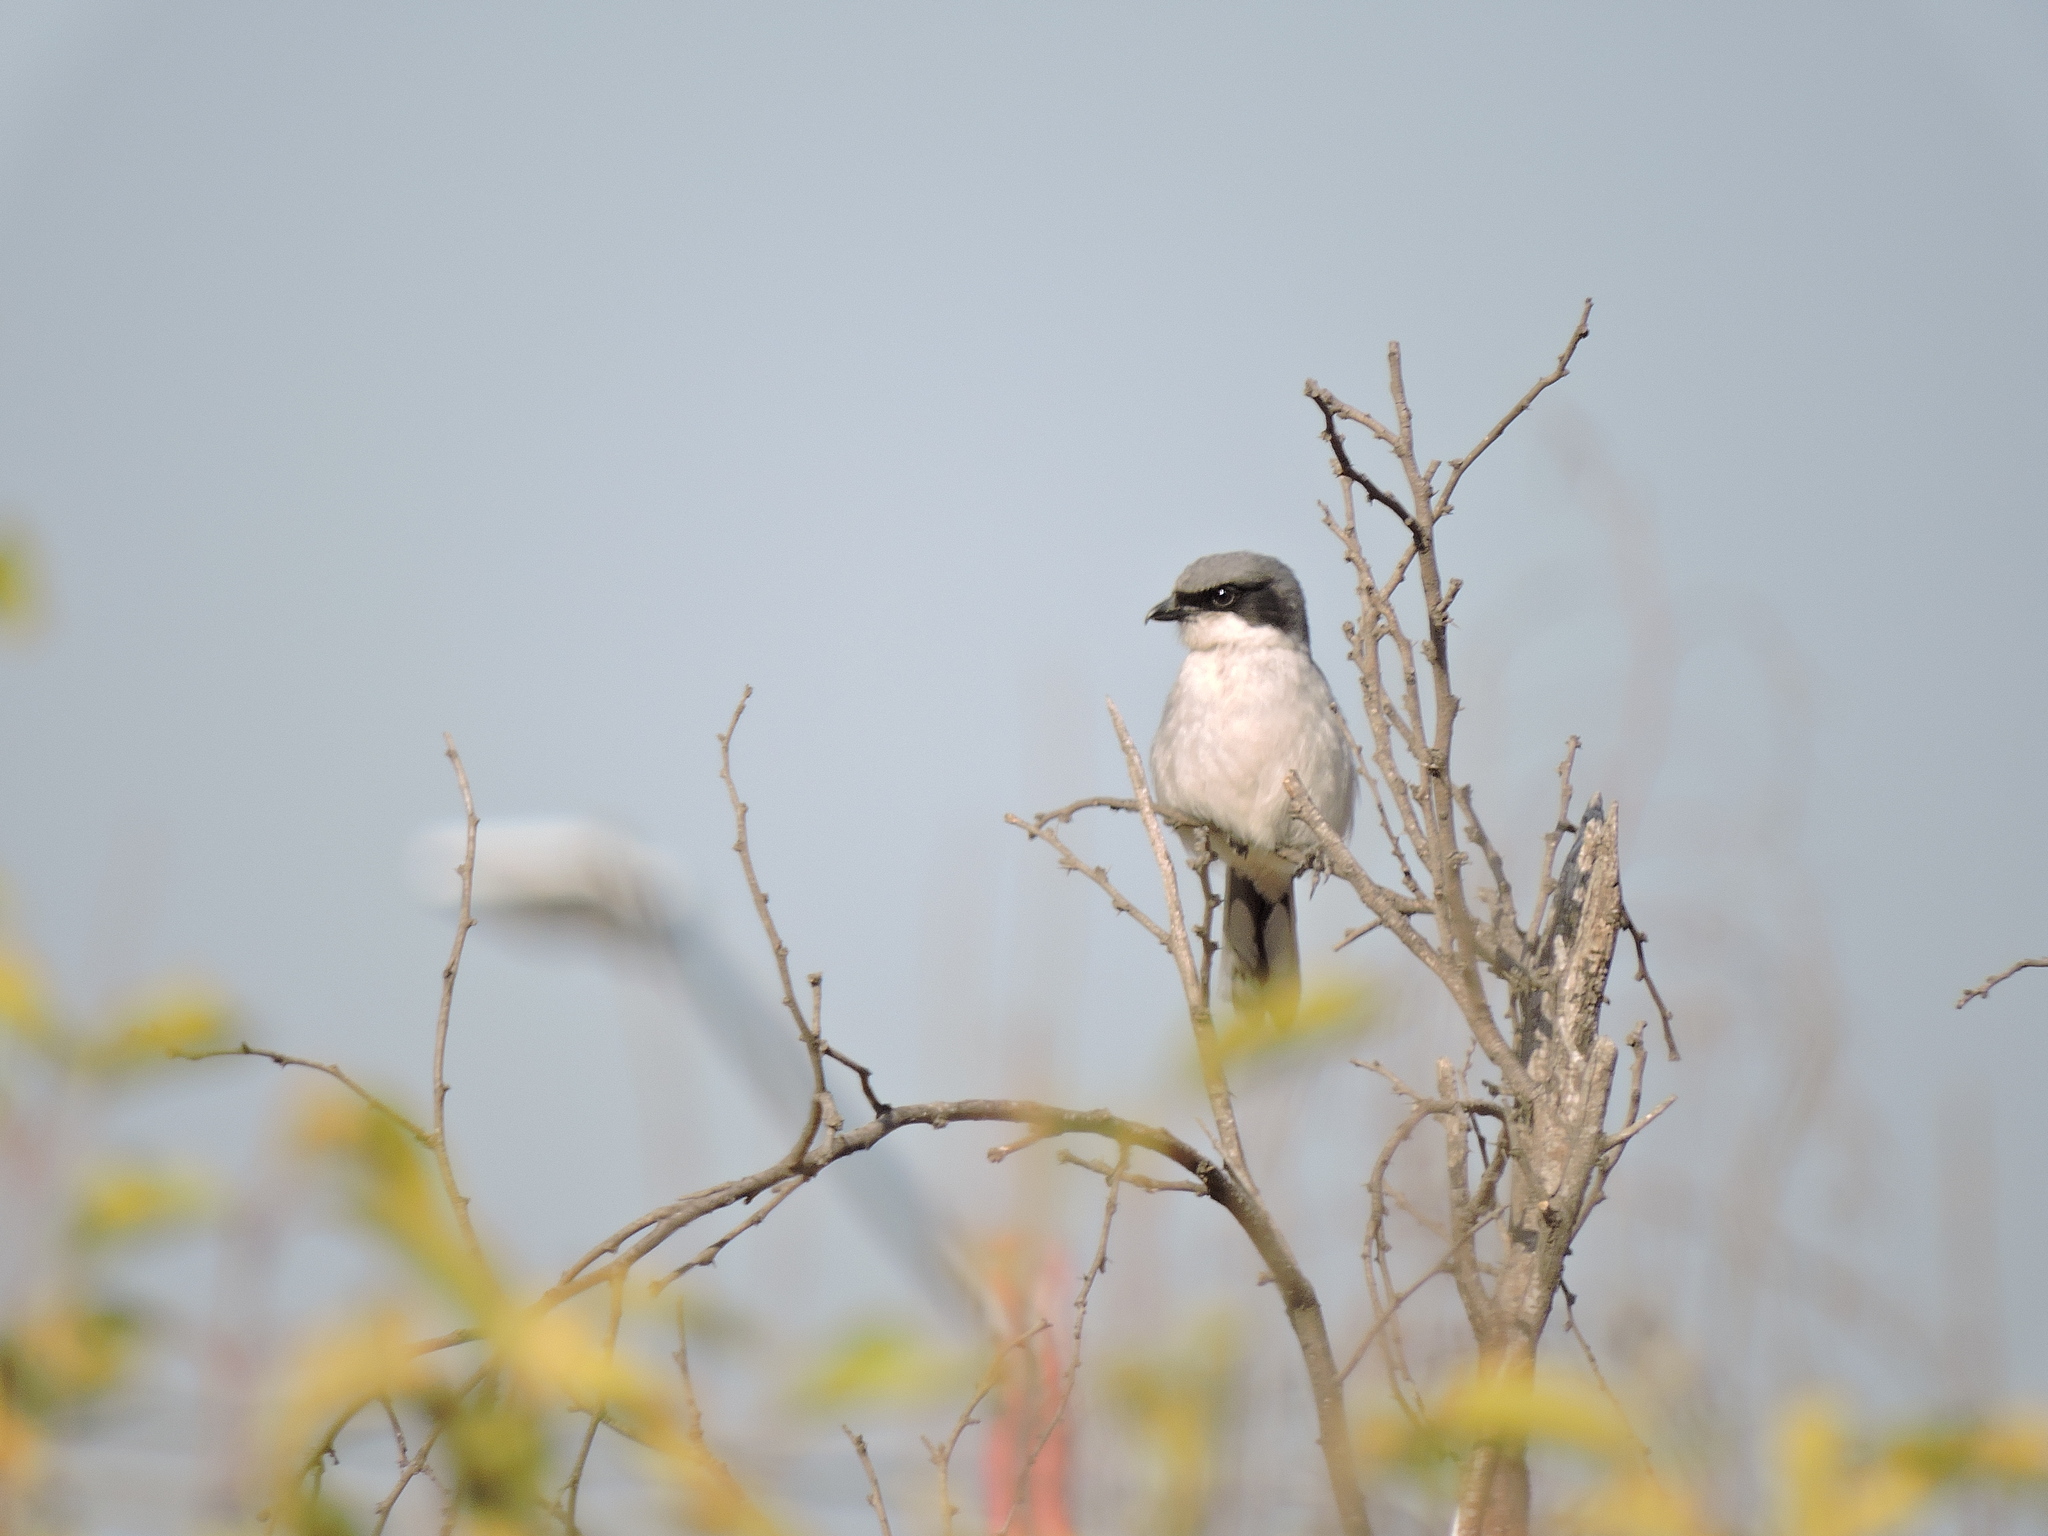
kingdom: Animalia
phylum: Chordata
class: Aves
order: Passeriformes
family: Laniidae
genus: Lanius
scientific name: Lanius ludovicianus
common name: Loggerhead shrike
